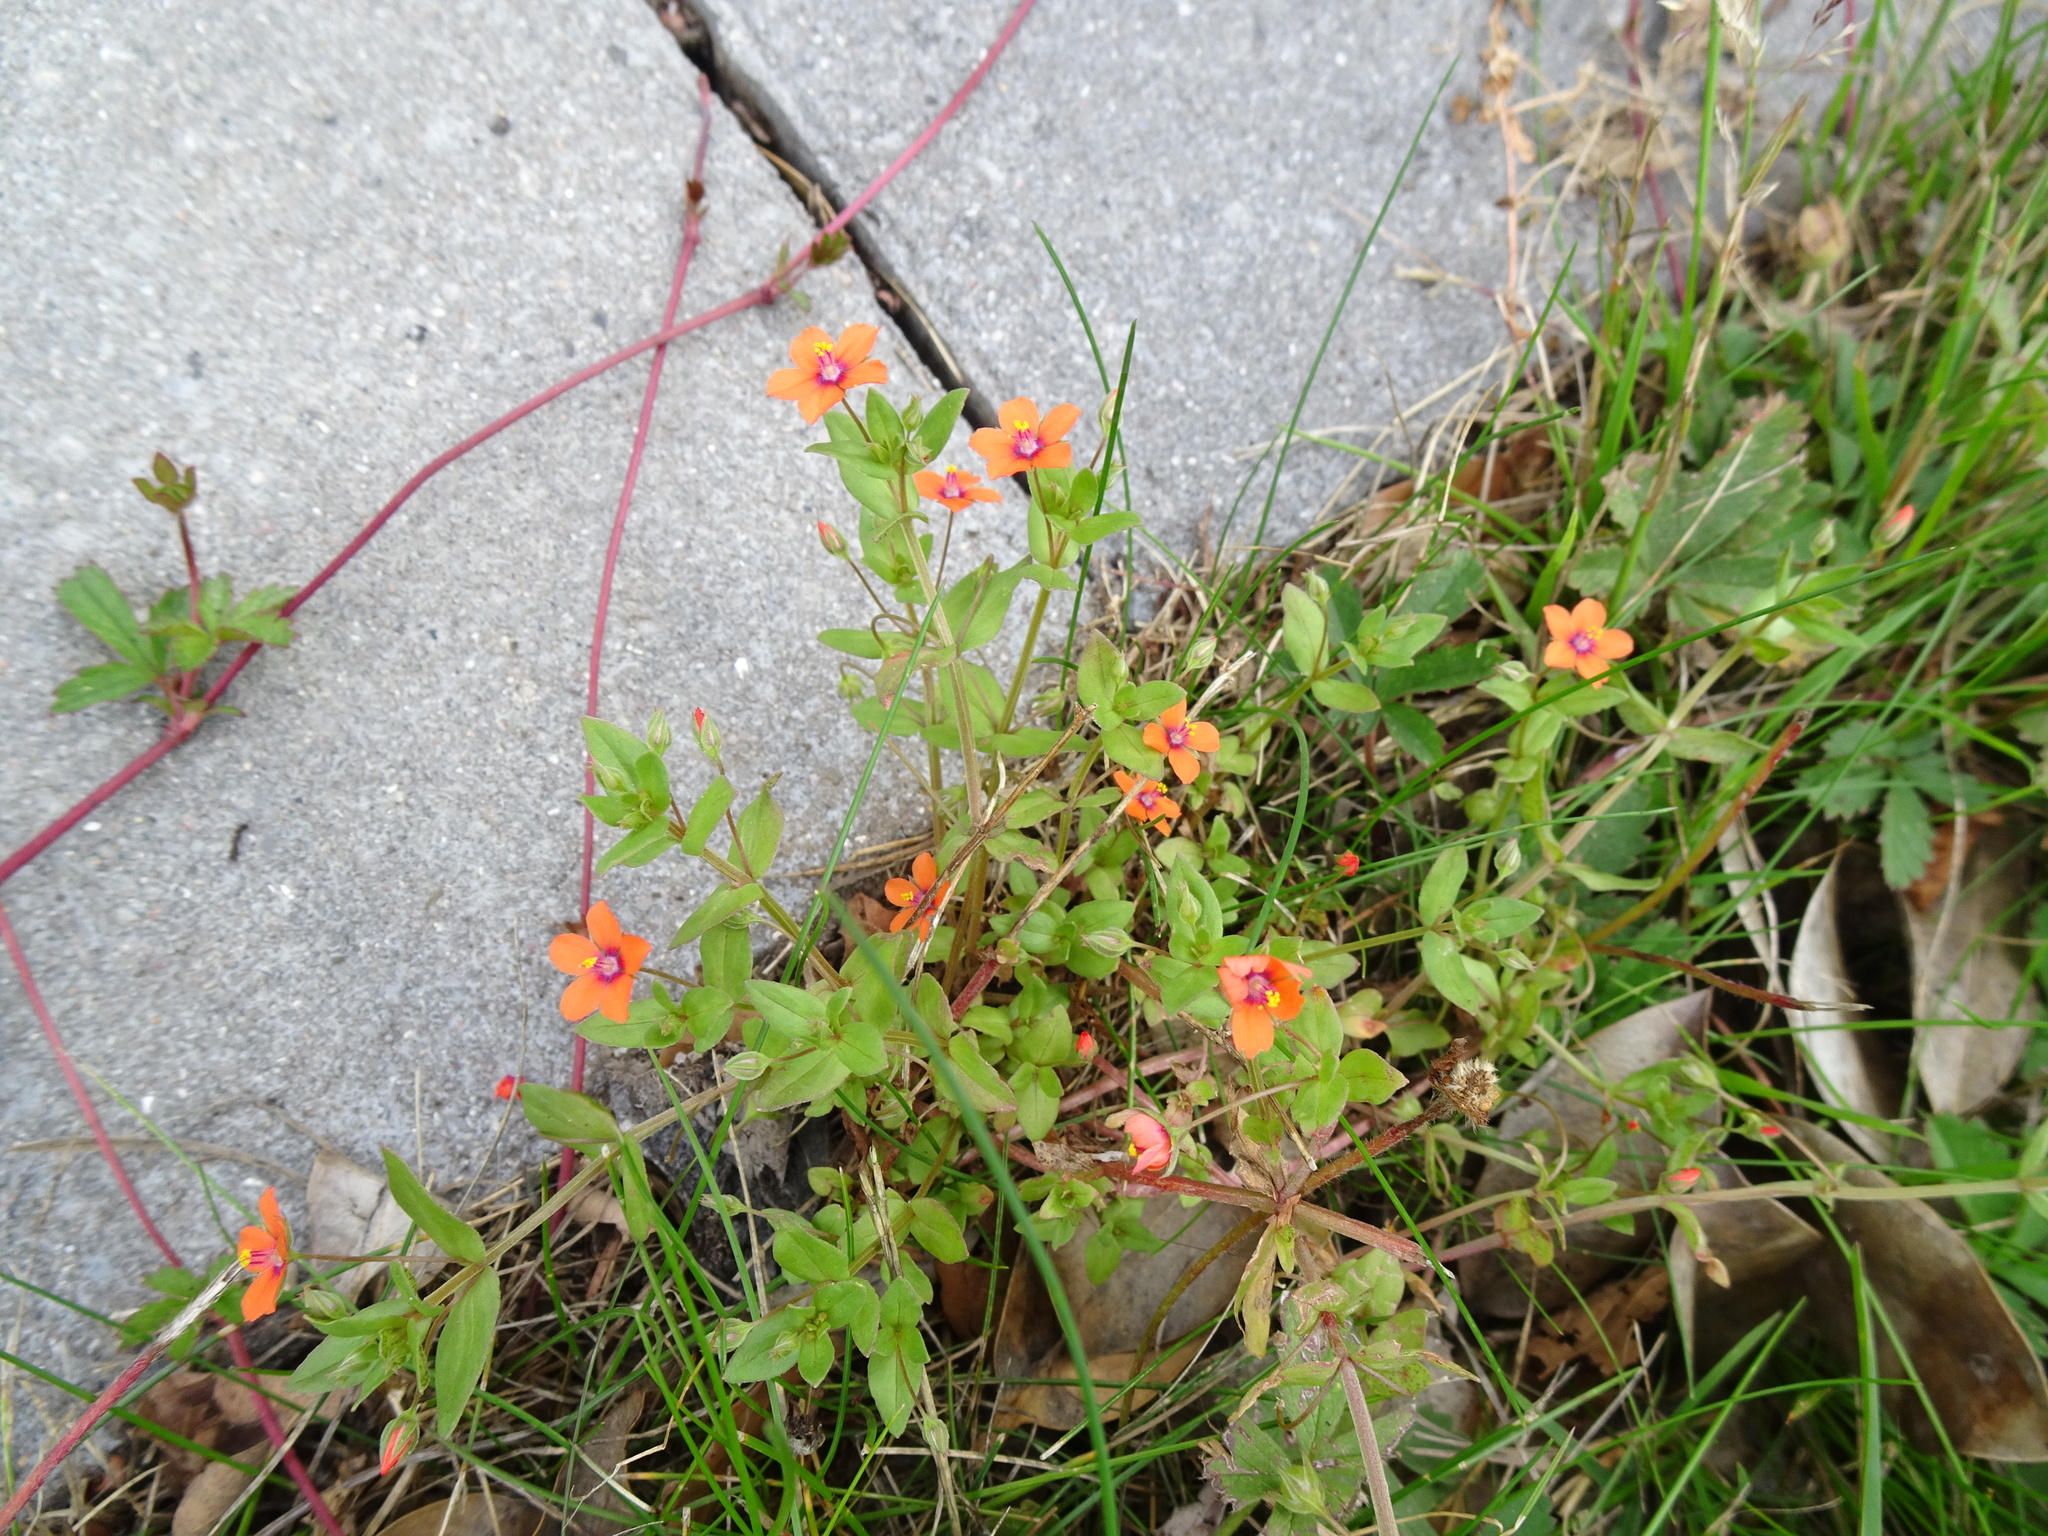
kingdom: Plantae
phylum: Tracheophyta
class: Magnoliopsida
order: Ericales
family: Primulaceae
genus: Lysimachia
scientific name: Lysimachia arvensis
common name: Scarlet pimpernel
